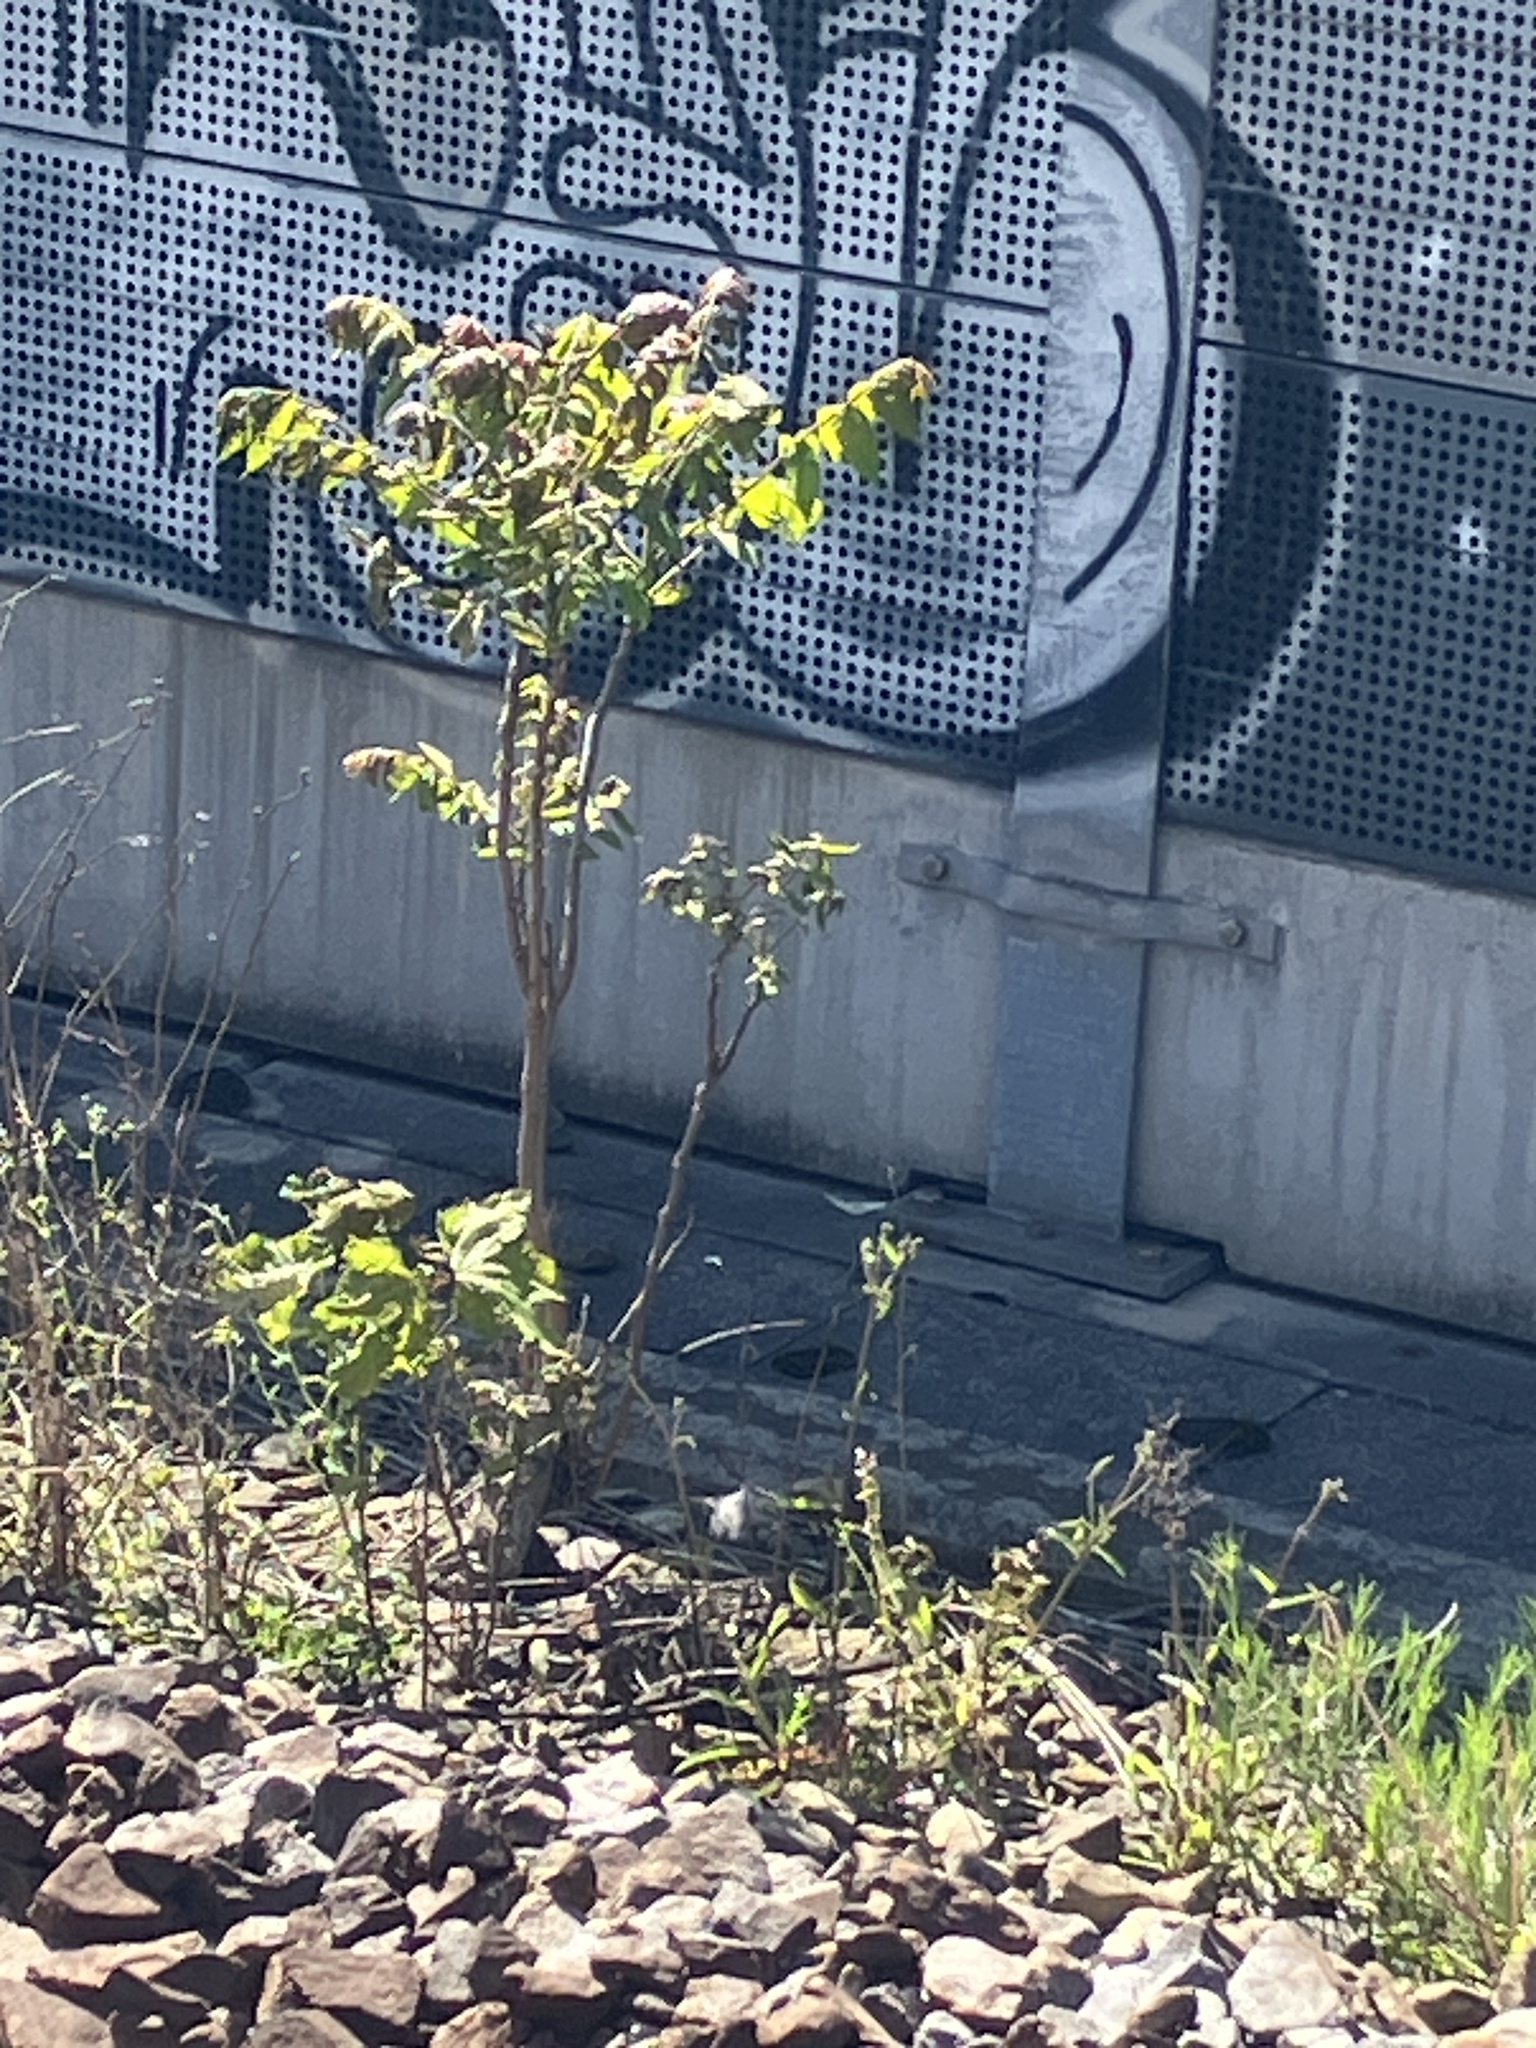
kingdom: Plantae
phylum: Tracheophyta
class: Magnoliopsida
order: Sapindales
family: Simaroubaceae
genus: Ailanthus
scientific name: Ailanthus altissima
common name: Tree-of-heaven
